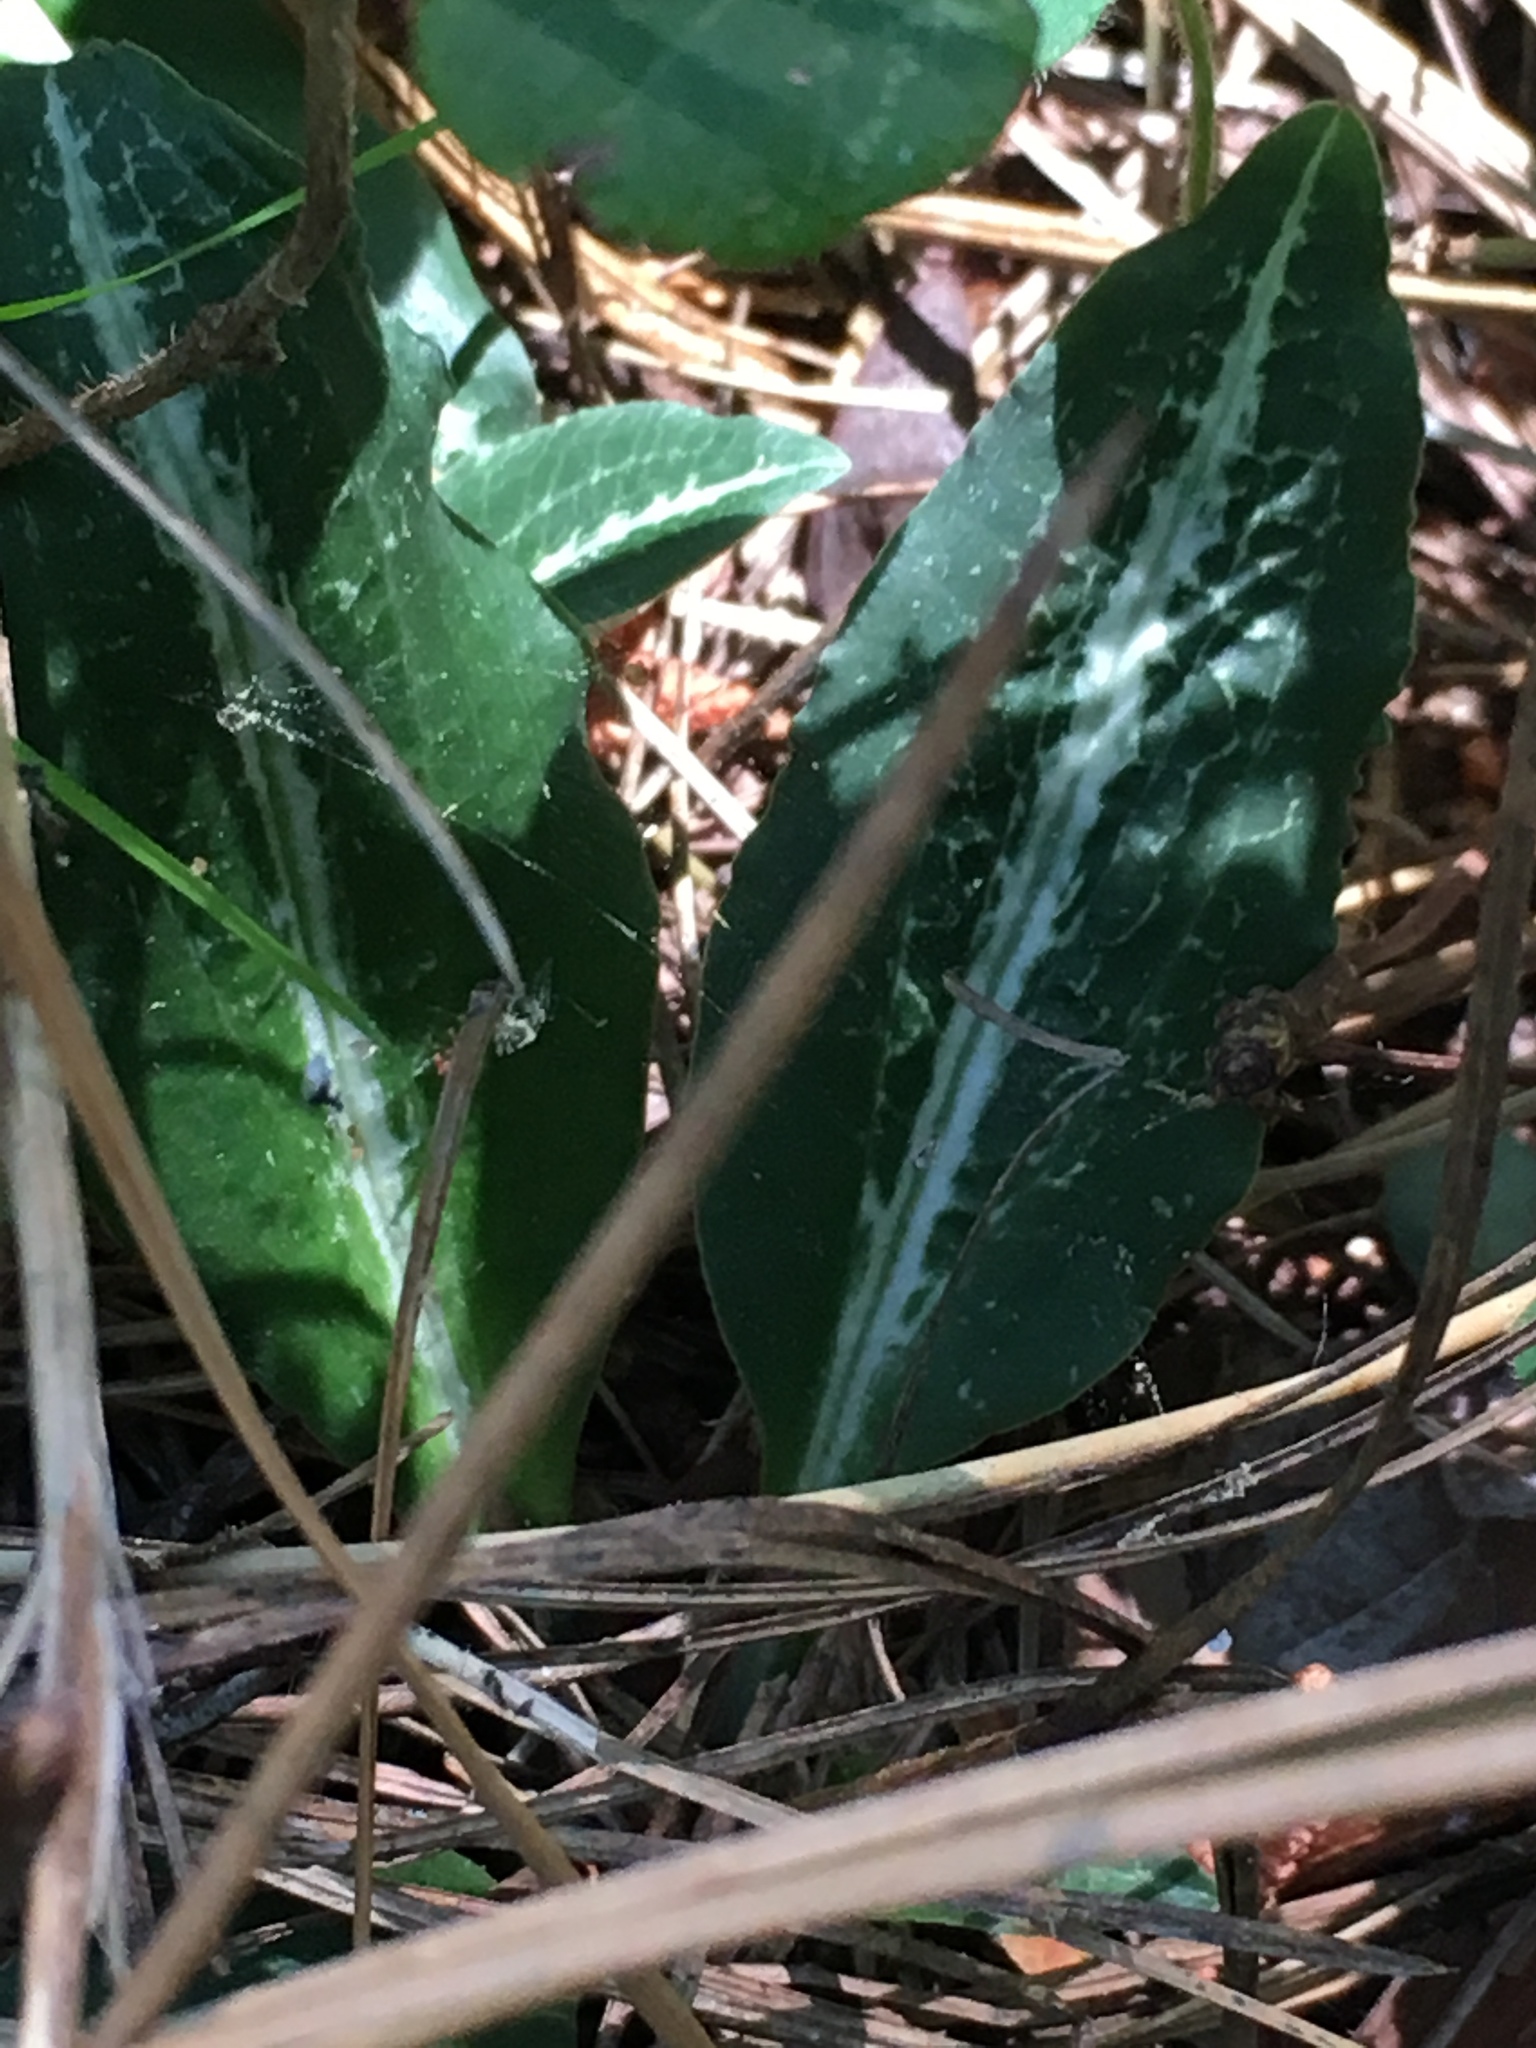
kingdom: Plantae
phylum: Tracheophyta
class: Liliopsida
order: Asparagales
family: Orchidaceae
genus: Goodyera
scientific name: Goodyera oblongifolia
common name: Giant rattlesnake-plantain
